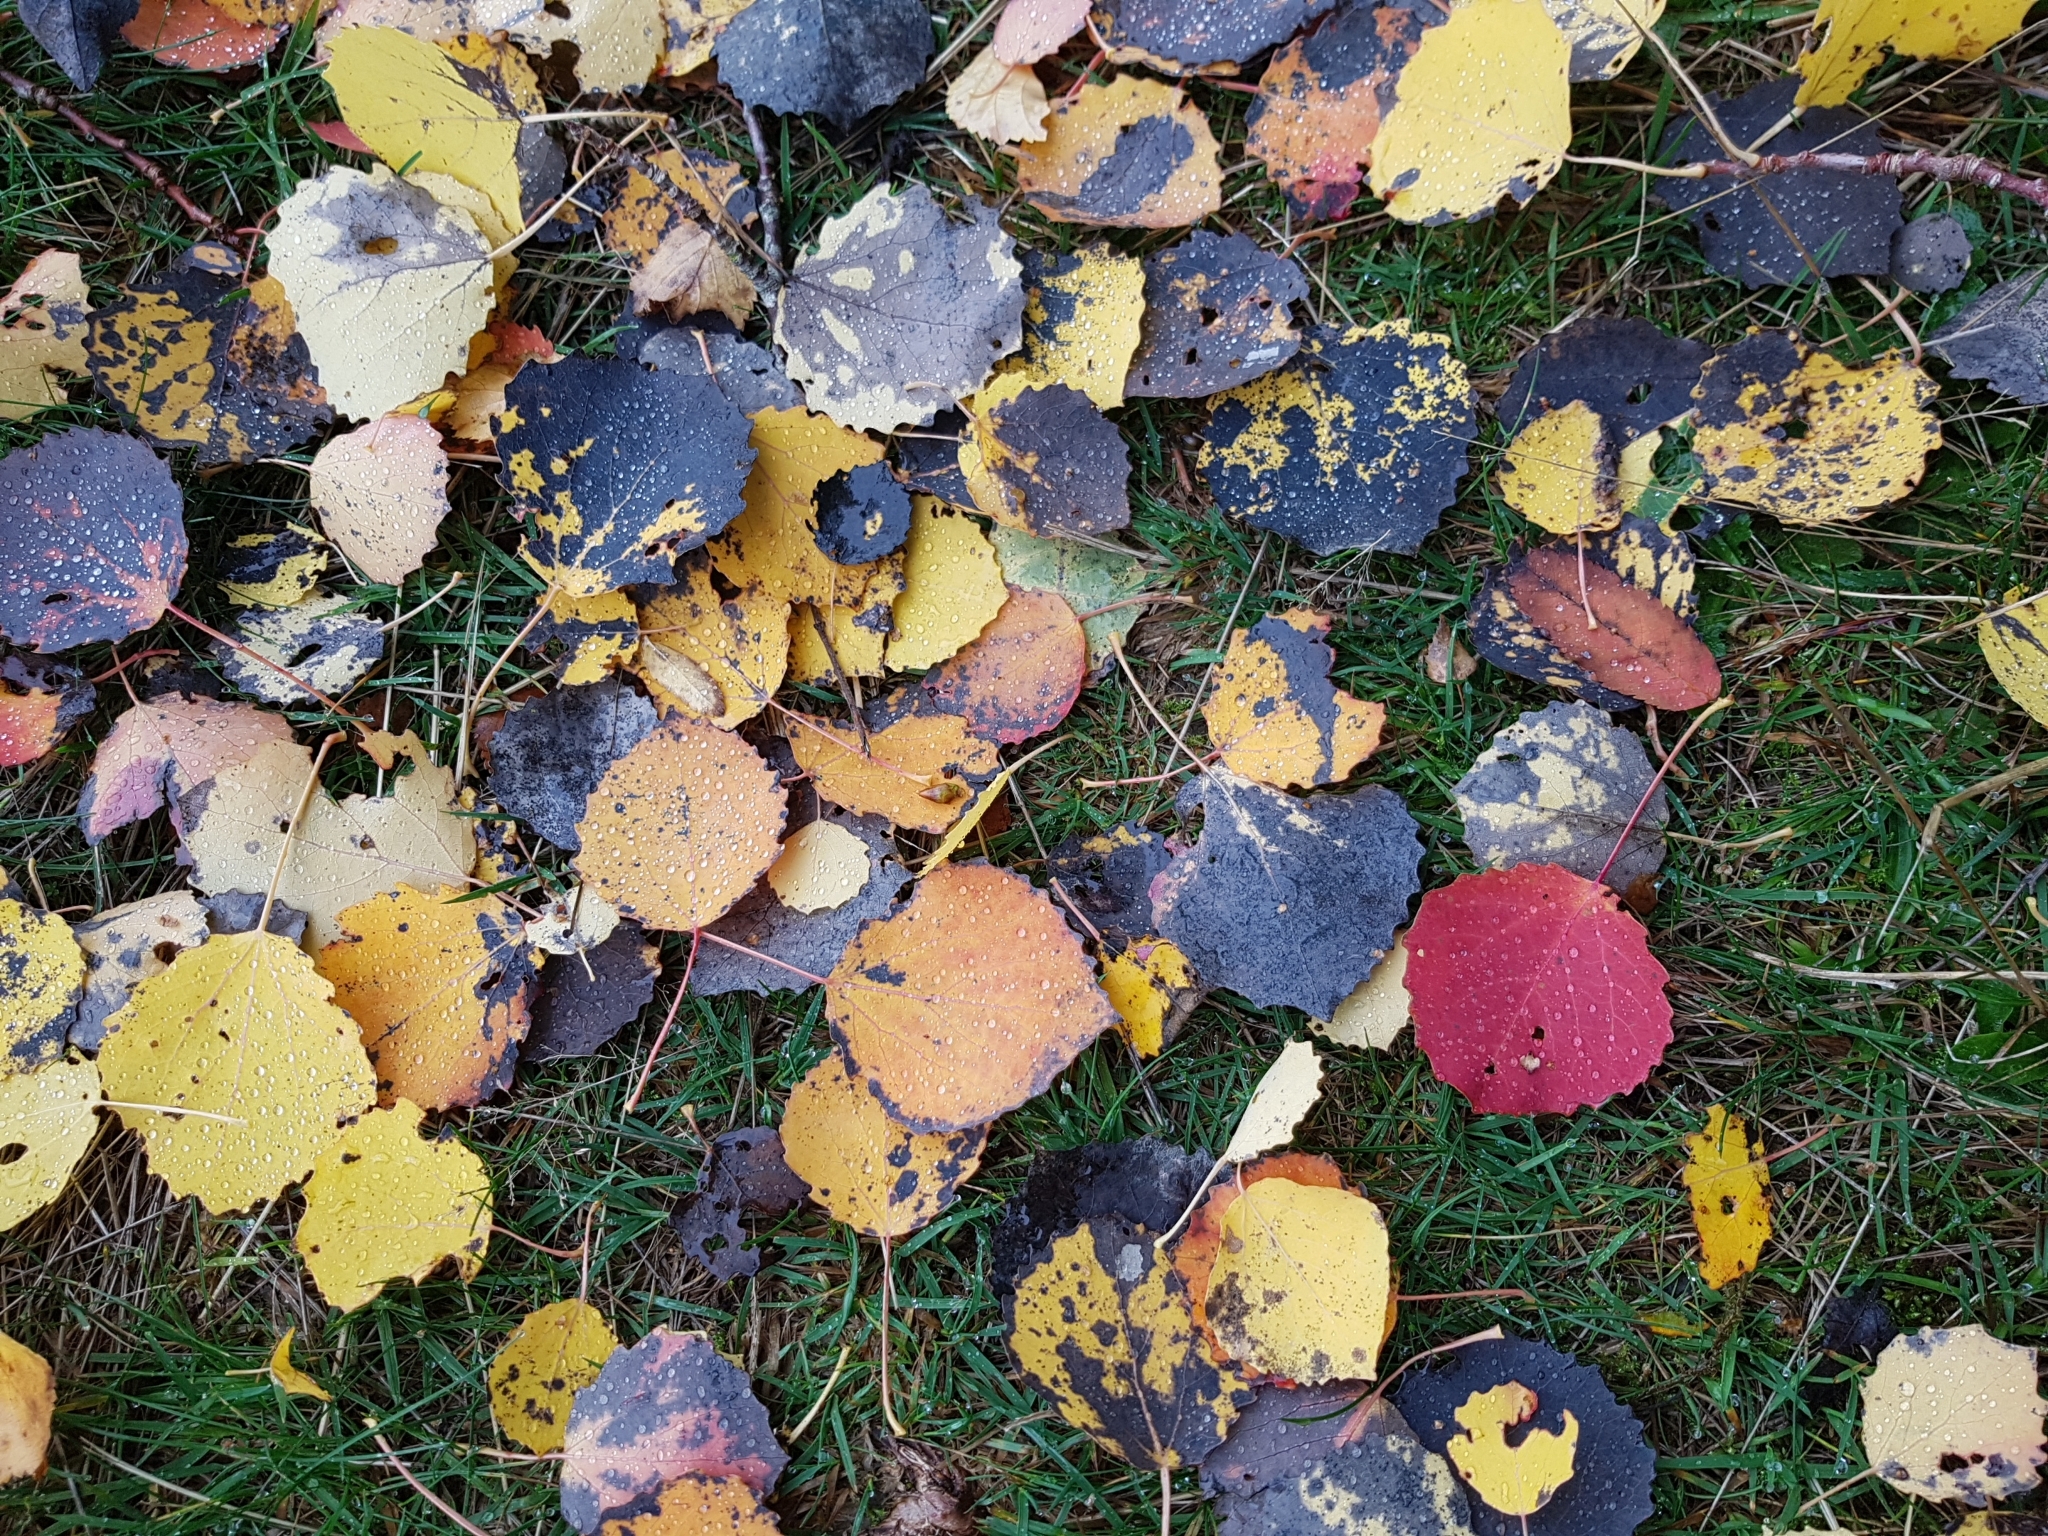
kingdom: Plantae
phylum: Tracheophyta
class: Magnoliopsida
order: Malpighiales
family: Salicaceae
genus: Populus
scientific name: Populus tremula
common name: European aspen
